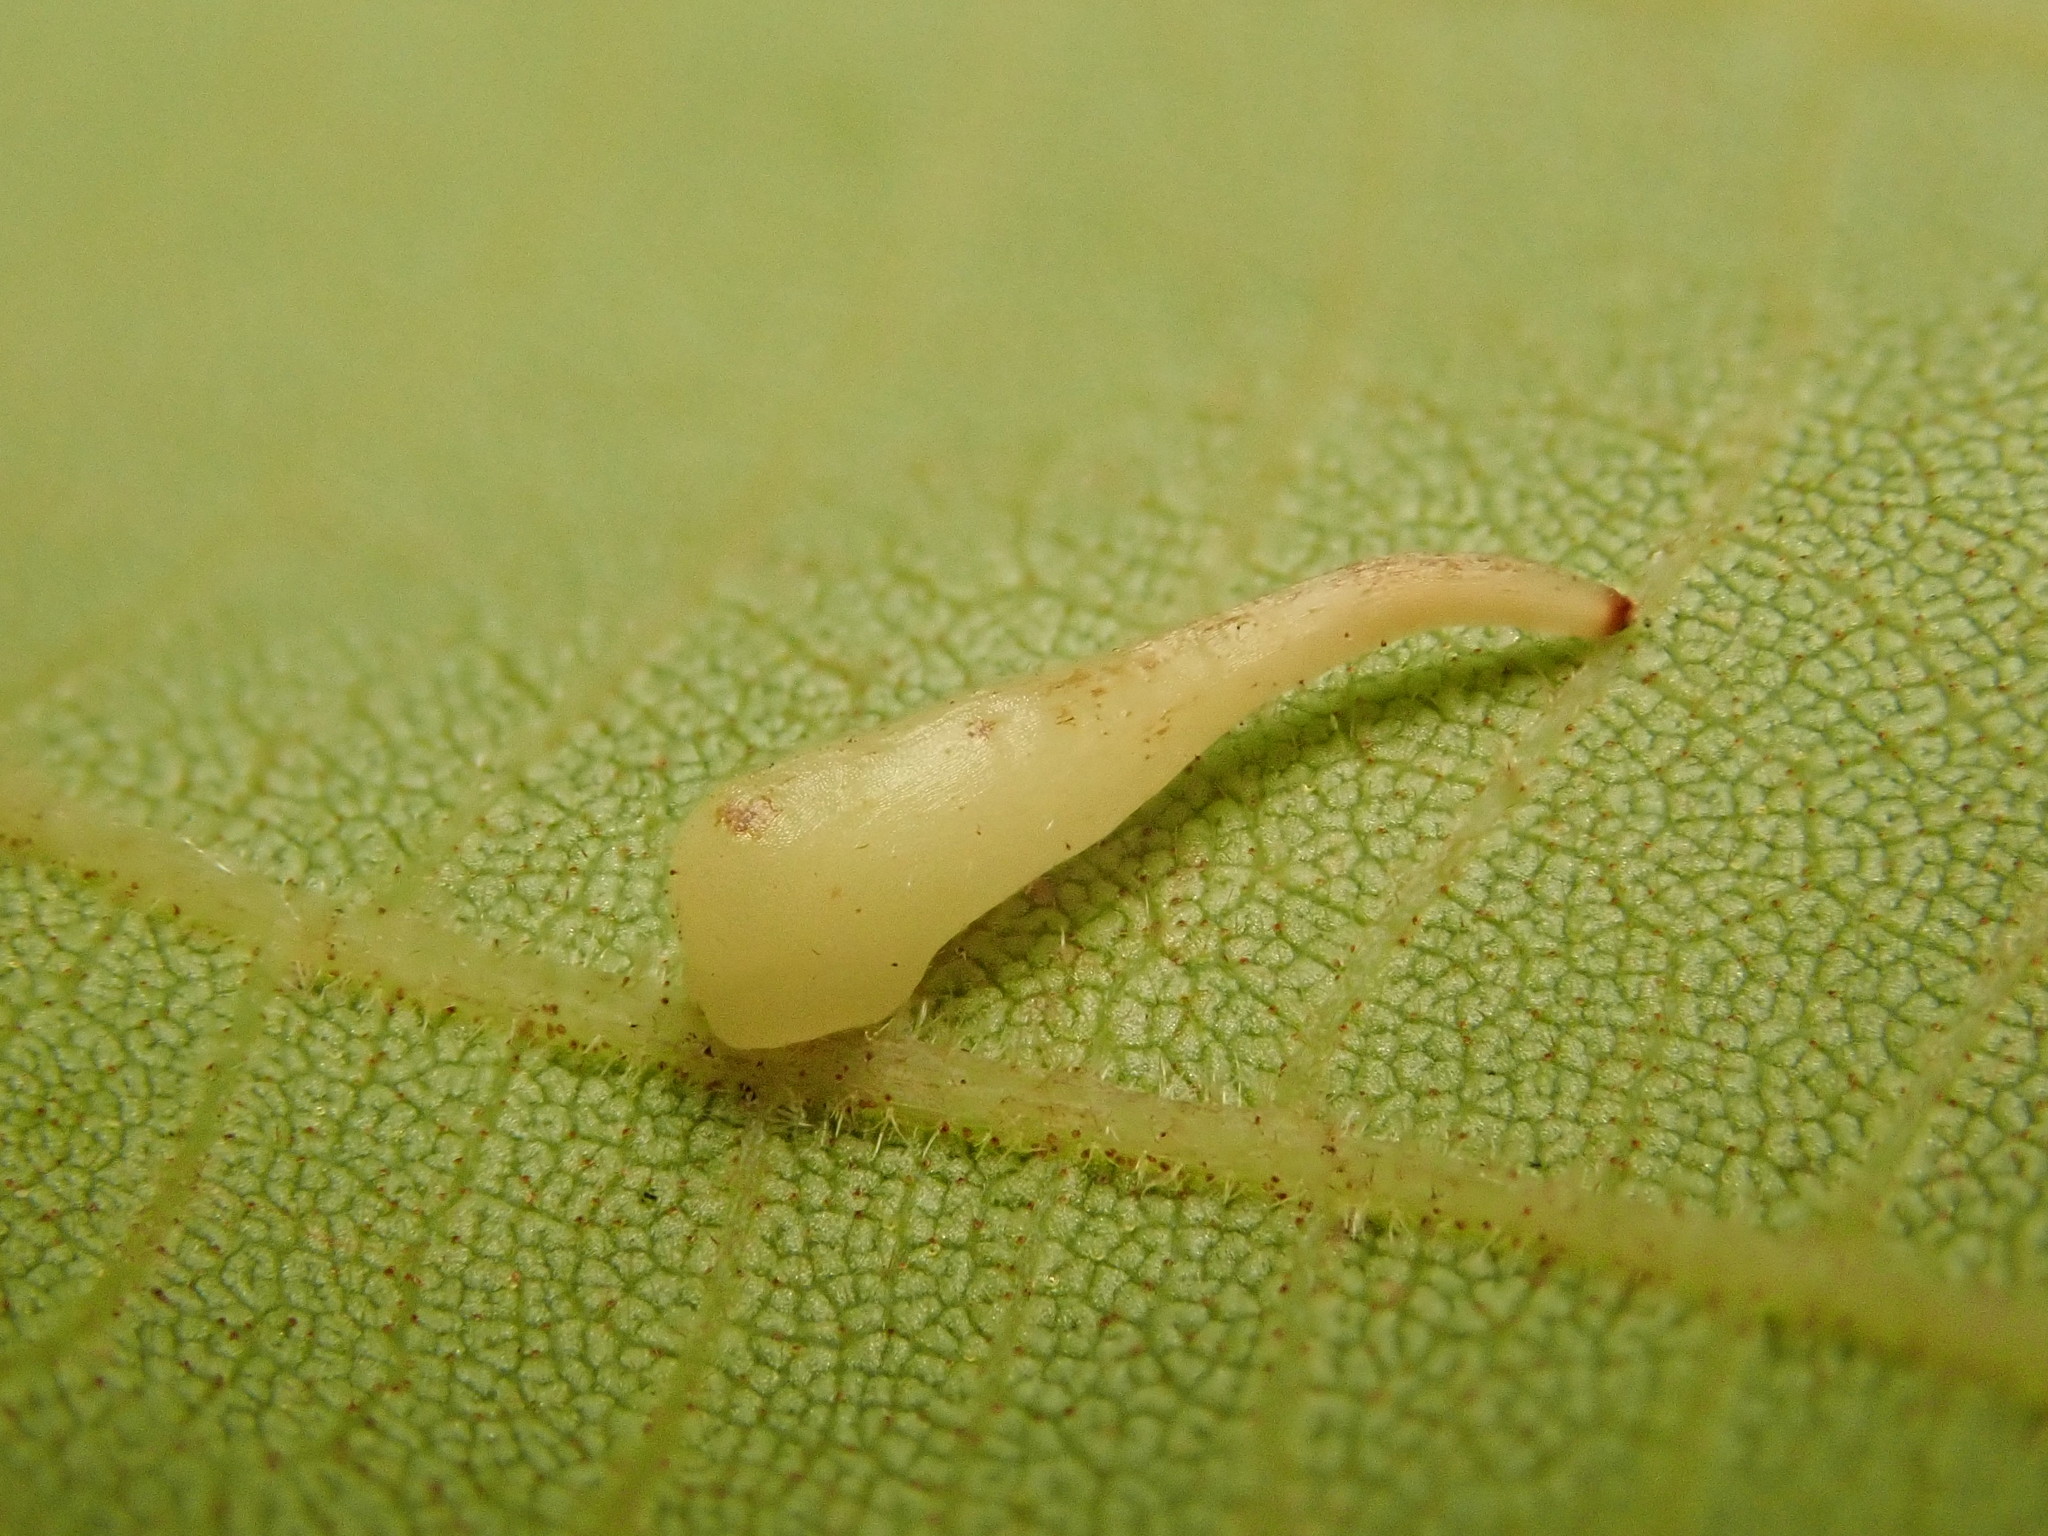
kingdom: Animalia
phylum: Arthropoda
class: Insecta
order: Diptera
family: Cecidomyiidae
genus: Caryomyia
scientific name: Caryomyia
